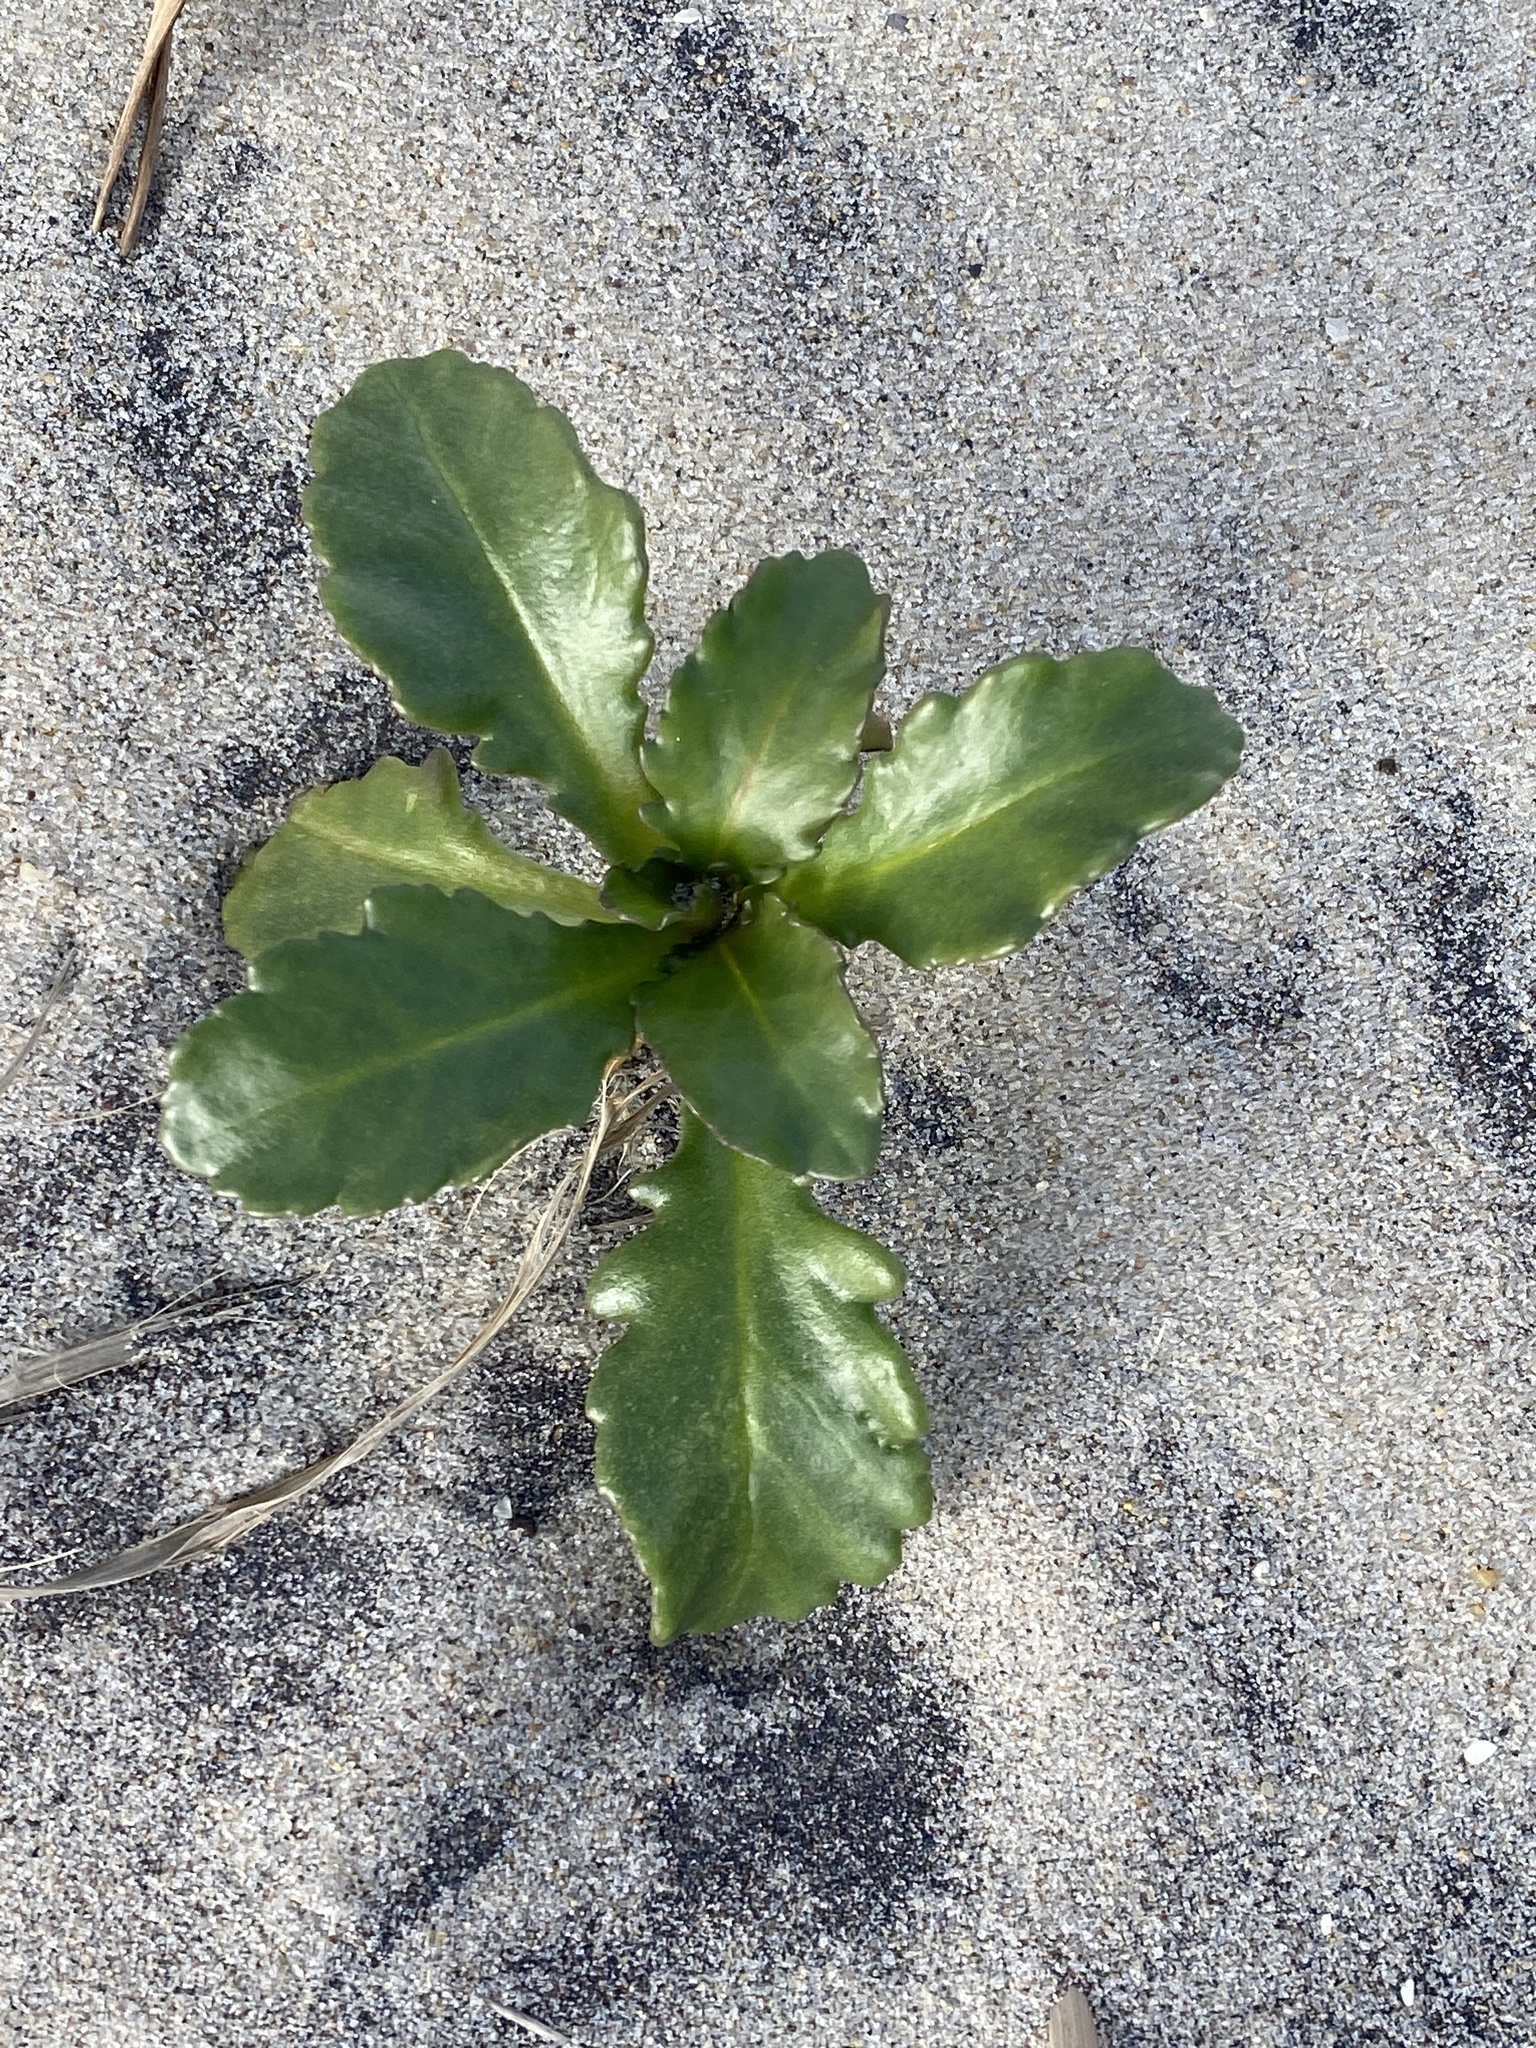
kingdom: Plantae
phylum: Tracheophyta
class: Magnoliopsida
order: Brassicales
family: Brassicaceae
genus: Cakile
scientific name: Cakile edentula
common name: American sea rocket
